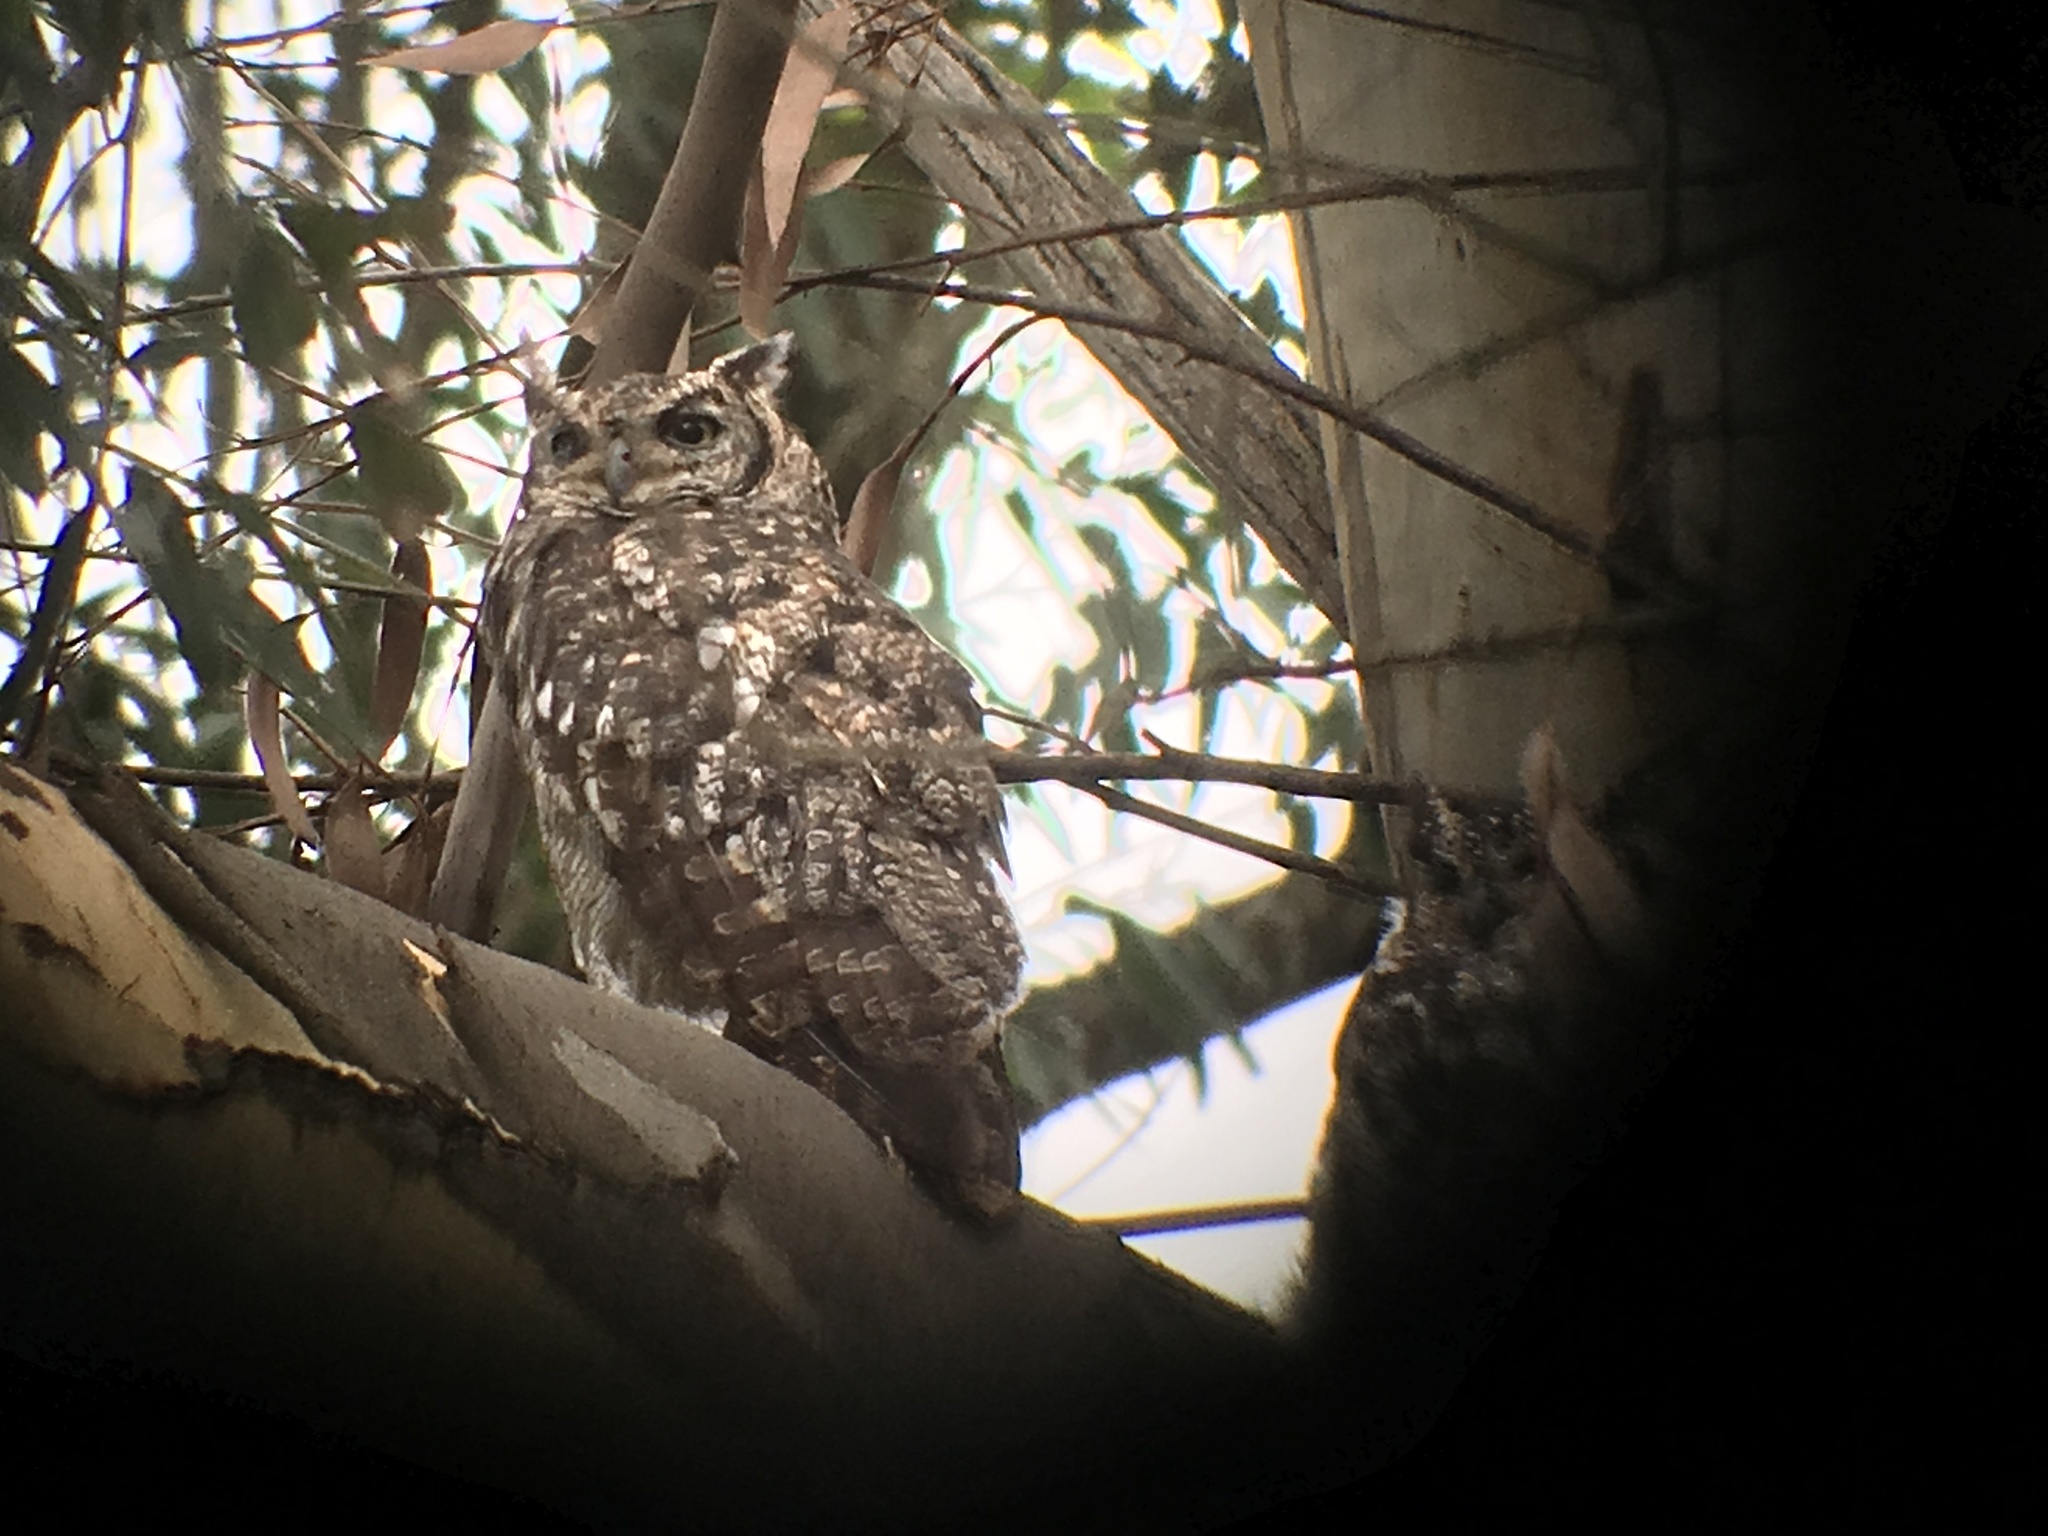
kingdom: Animalia
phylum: Chordata
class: Aves
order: Strigiformes
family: Strigidae
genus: Bubo
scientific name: Bubo africanus
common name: Spotted eagle-owl
